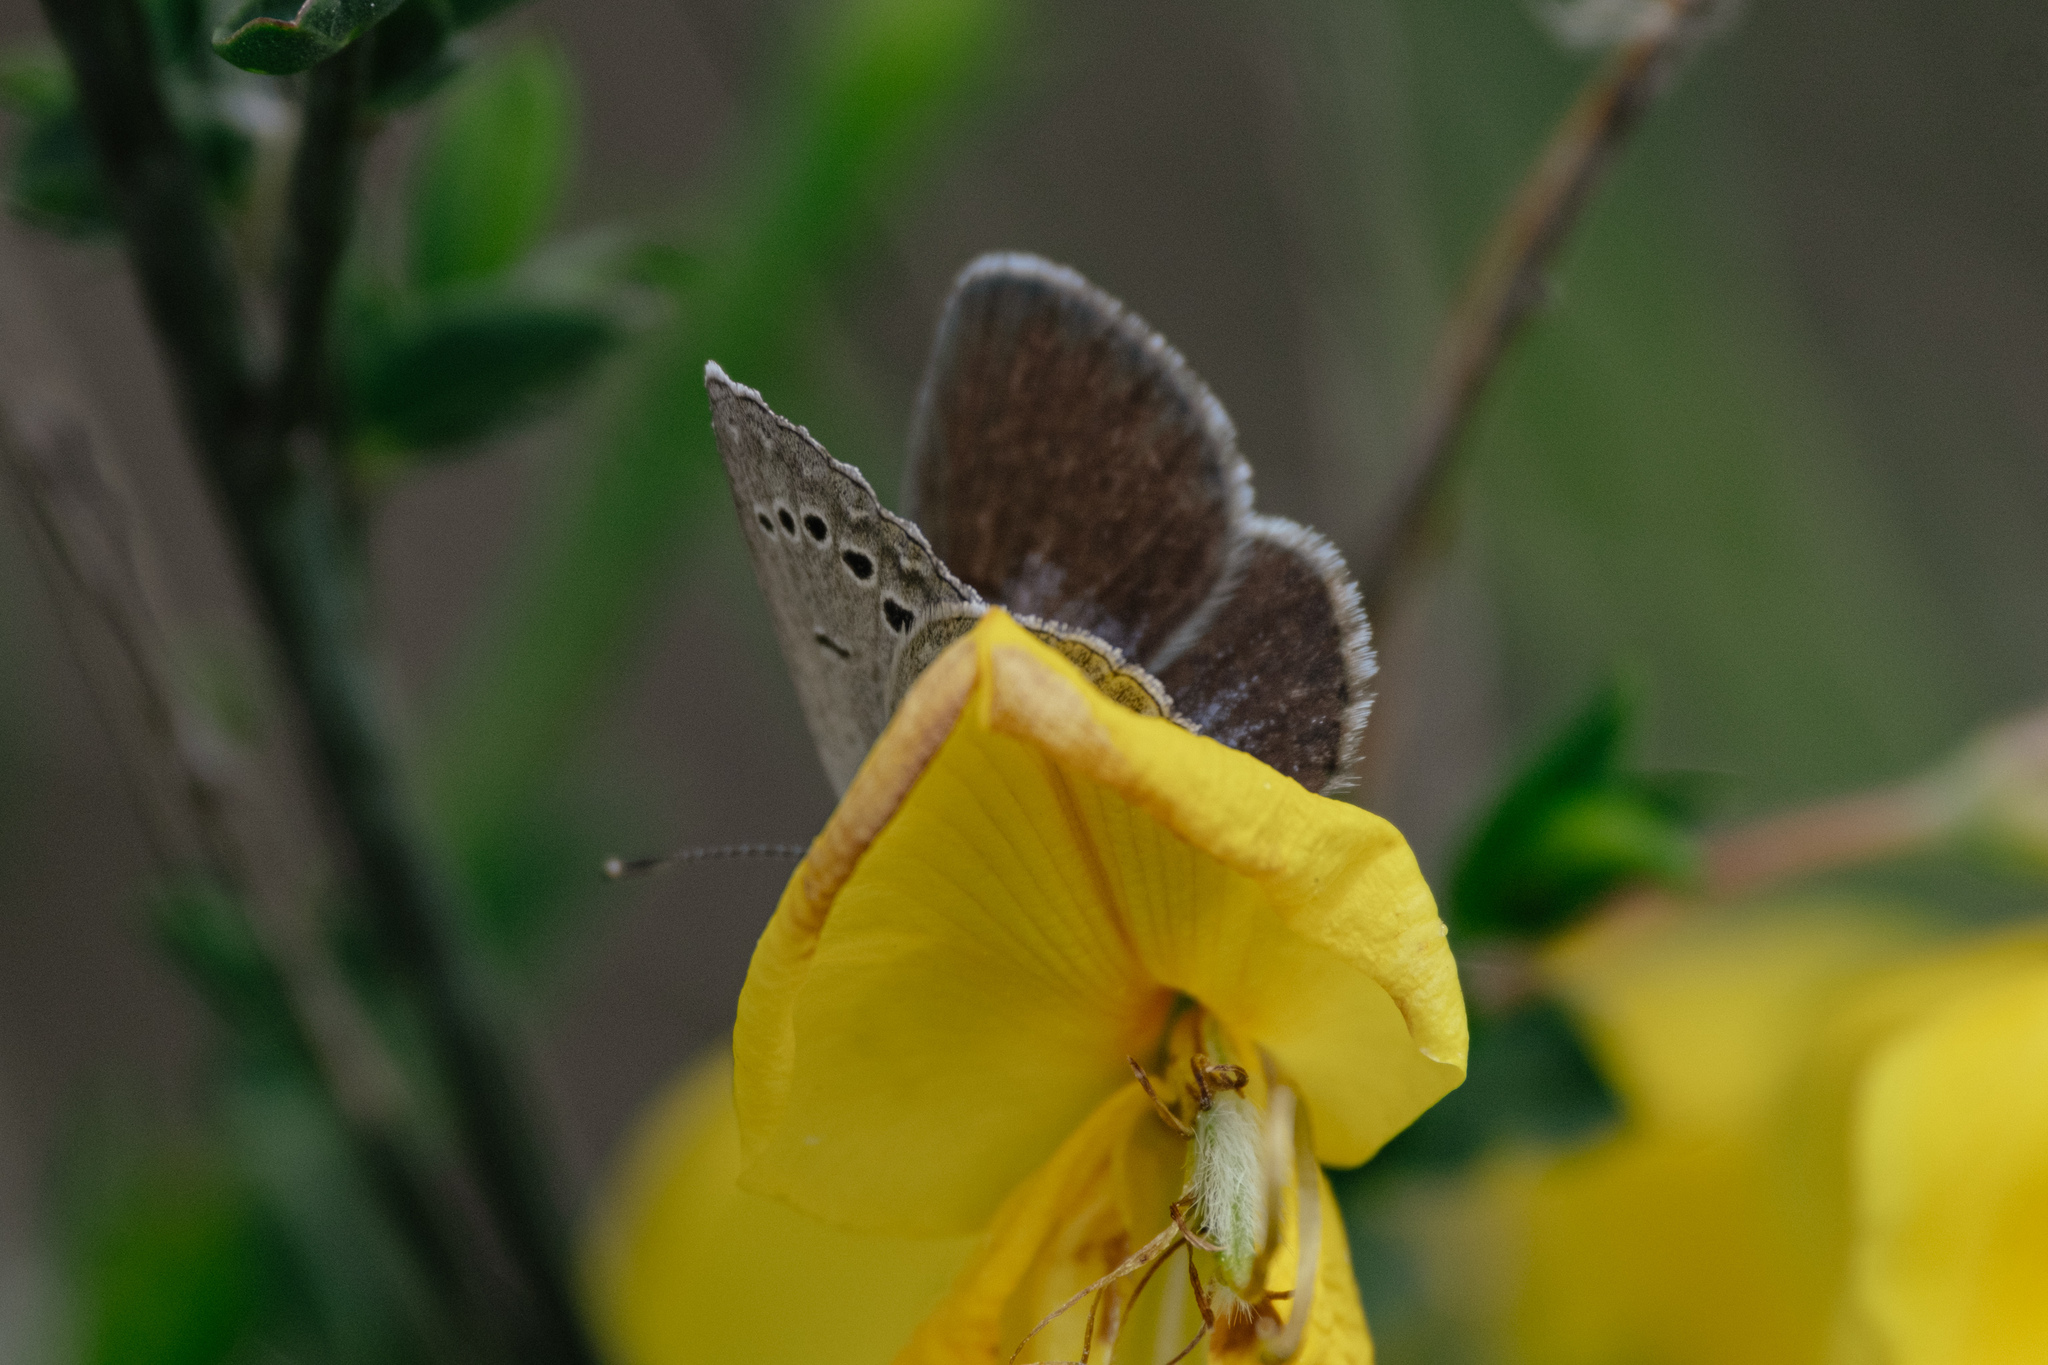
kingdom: Animalia
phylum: Arthropoda
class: Insecta
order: Lepidoptera
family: Lycaenidae
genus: Glaucopsyche
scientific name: Glaucopsyche melanops
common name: Black-eyed blue
